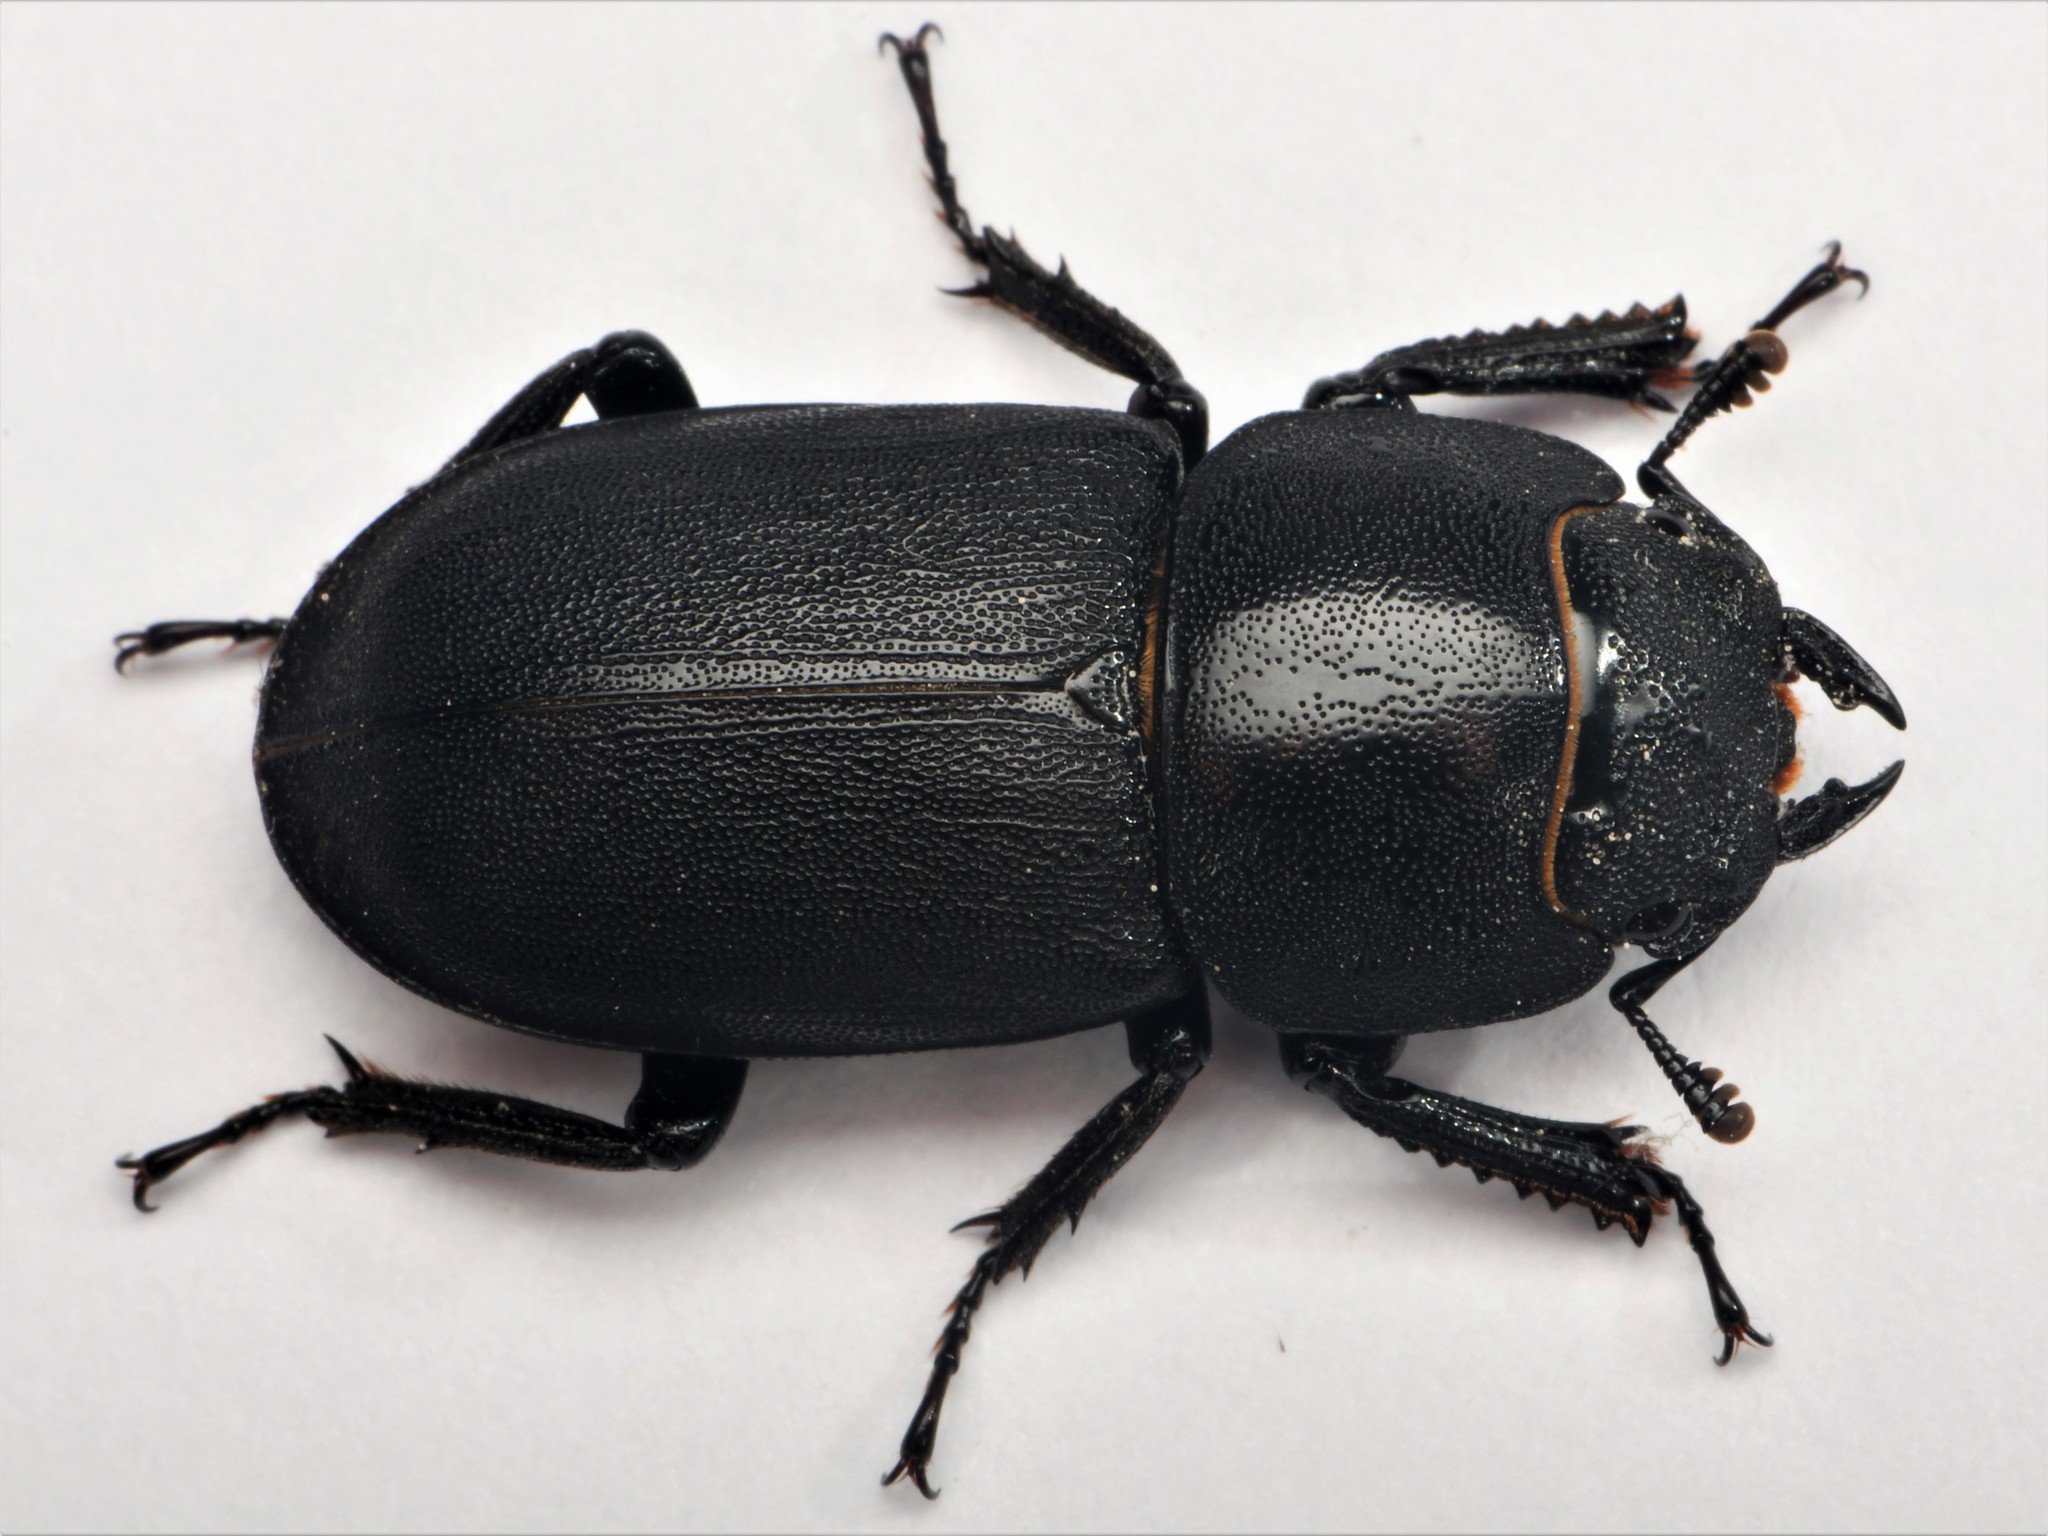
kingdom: Animalia
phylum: Arthropoda
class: Insecta
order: Coleoptera
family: Lucanidae
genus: Dorcus
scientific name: Dorcus parallelipipedus
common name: Lesser stag beetle
